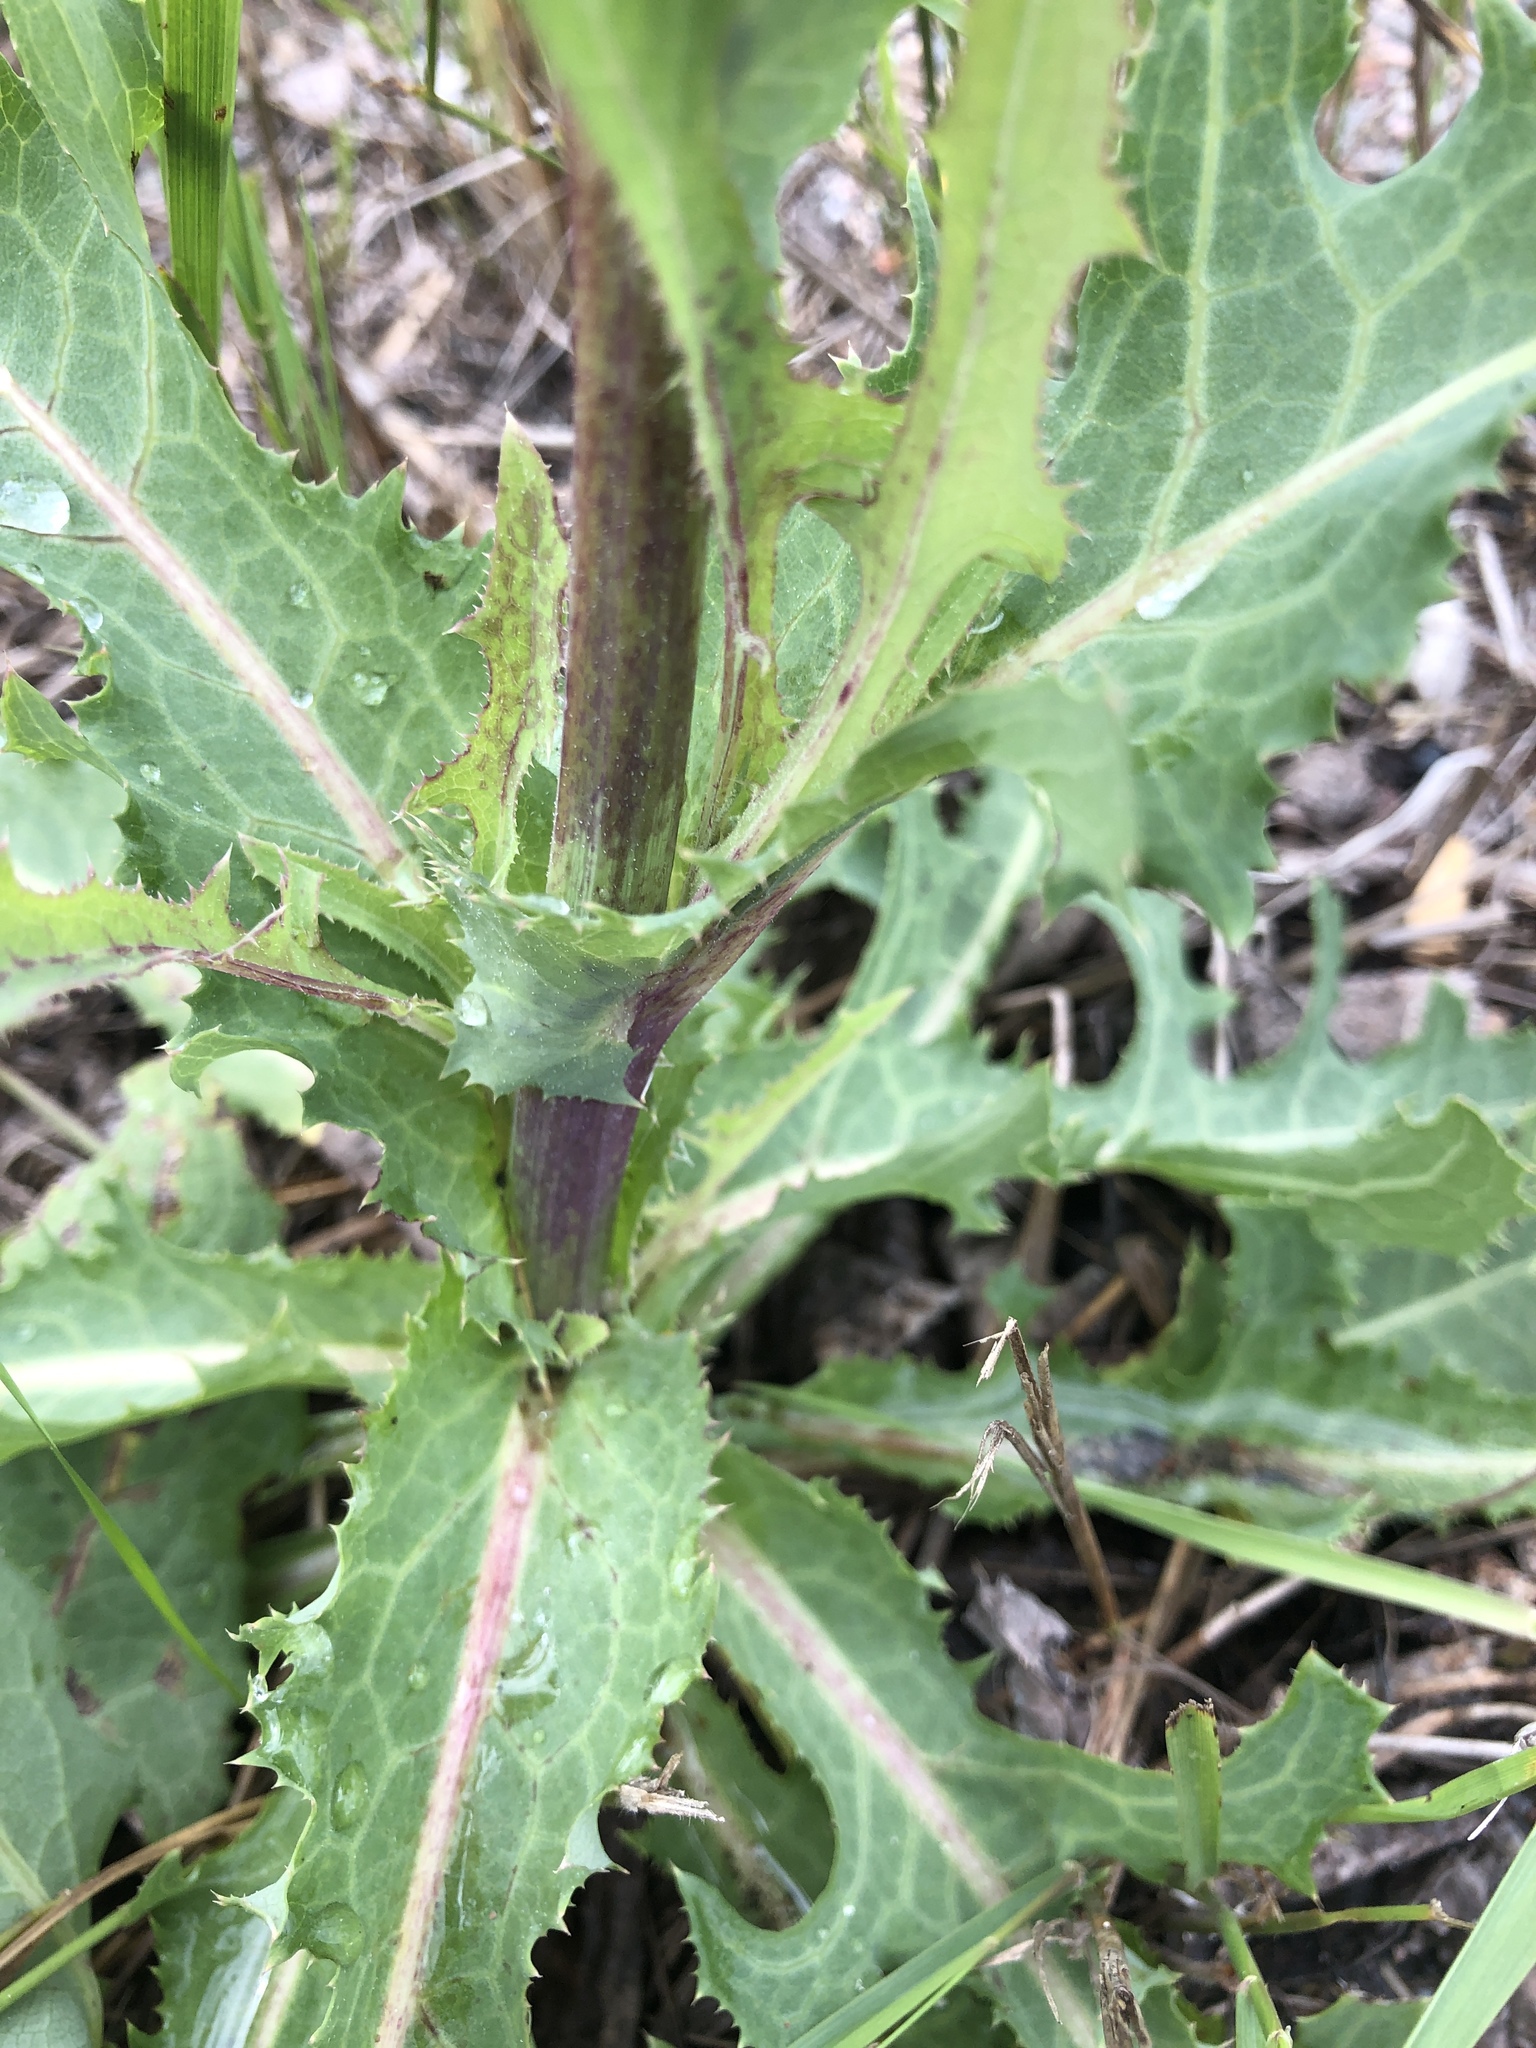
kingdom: Plantae
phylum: Tracheophyta
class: Magnoliopsida
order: Asterales
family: Asteraceae
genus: Sonchus
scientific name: Sonchus arvensis
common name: Perennial sow-thistle
